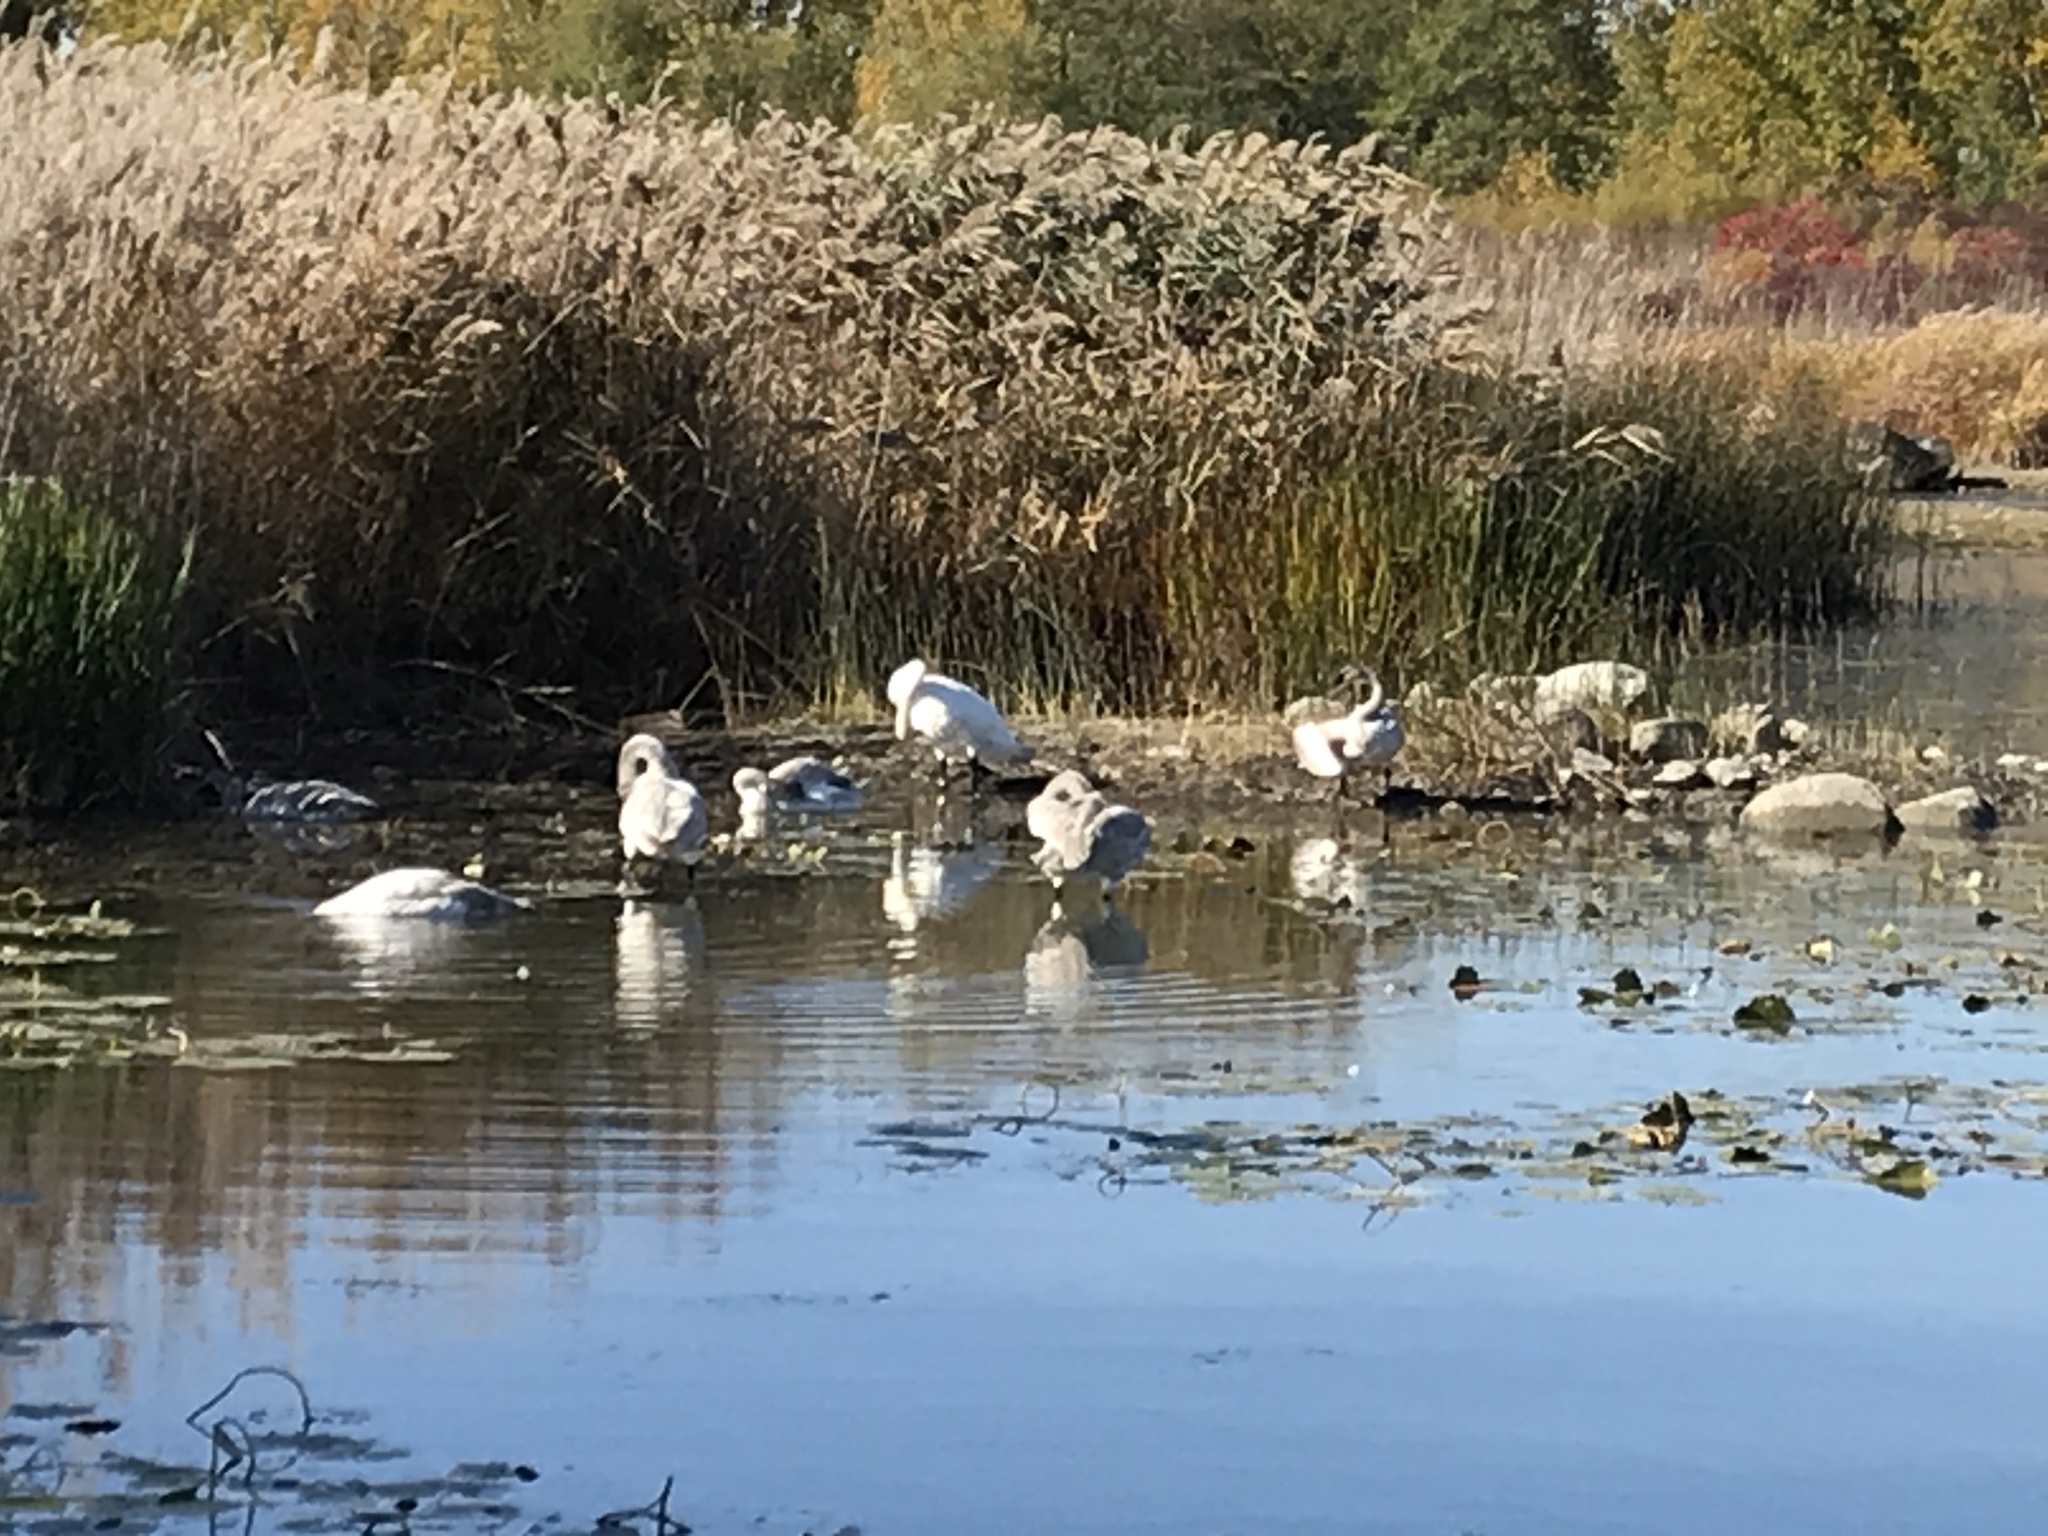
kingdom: Animalia
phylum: Chordata
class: Aves
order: Anseriformes
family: Anatidae
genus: Cygnus
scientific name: Cygnus buccinator
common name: Trumpeter swan
